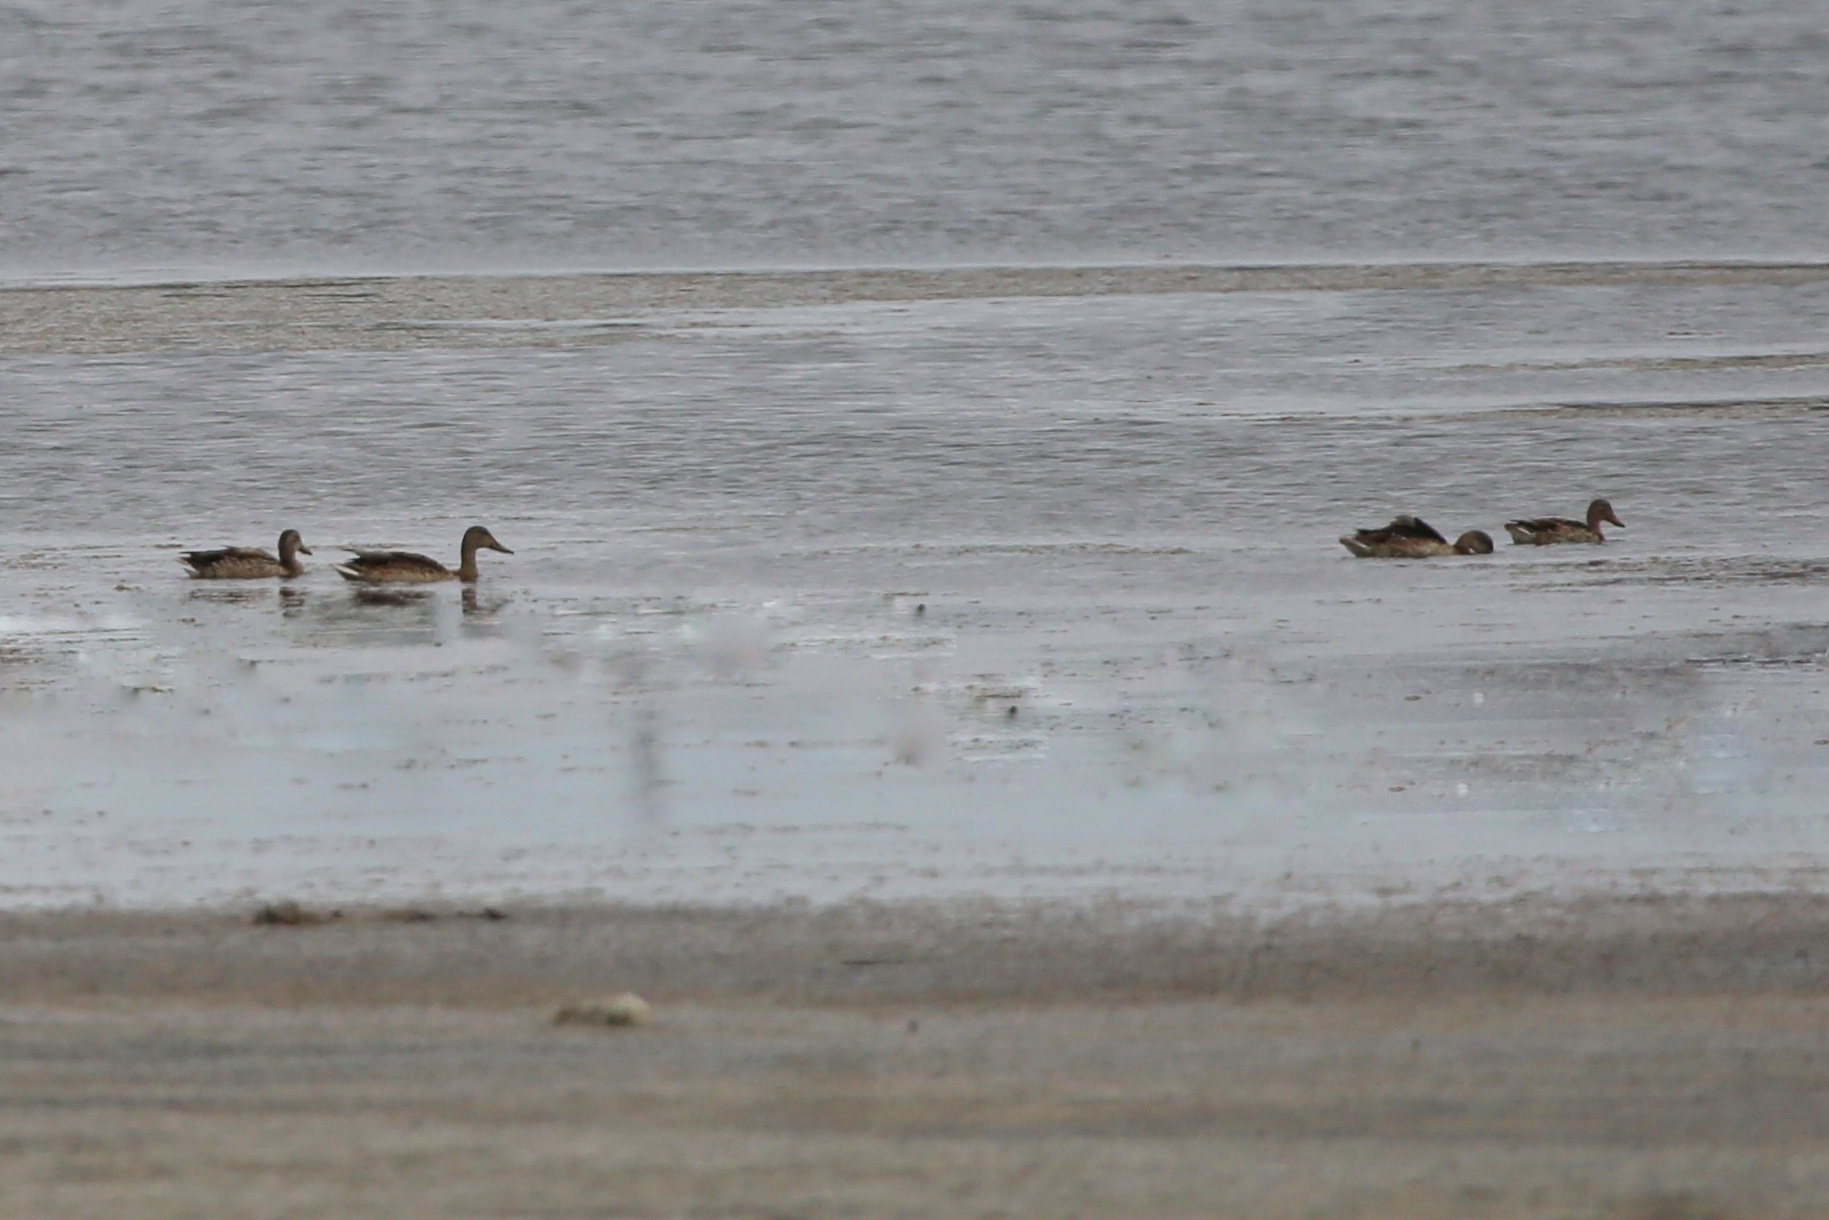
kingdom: Animalia
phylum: Chordata
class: Aves
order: Anseriformes
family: Anatidae
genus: Anas
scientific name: Anas platyrhynchos
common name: Mallard
